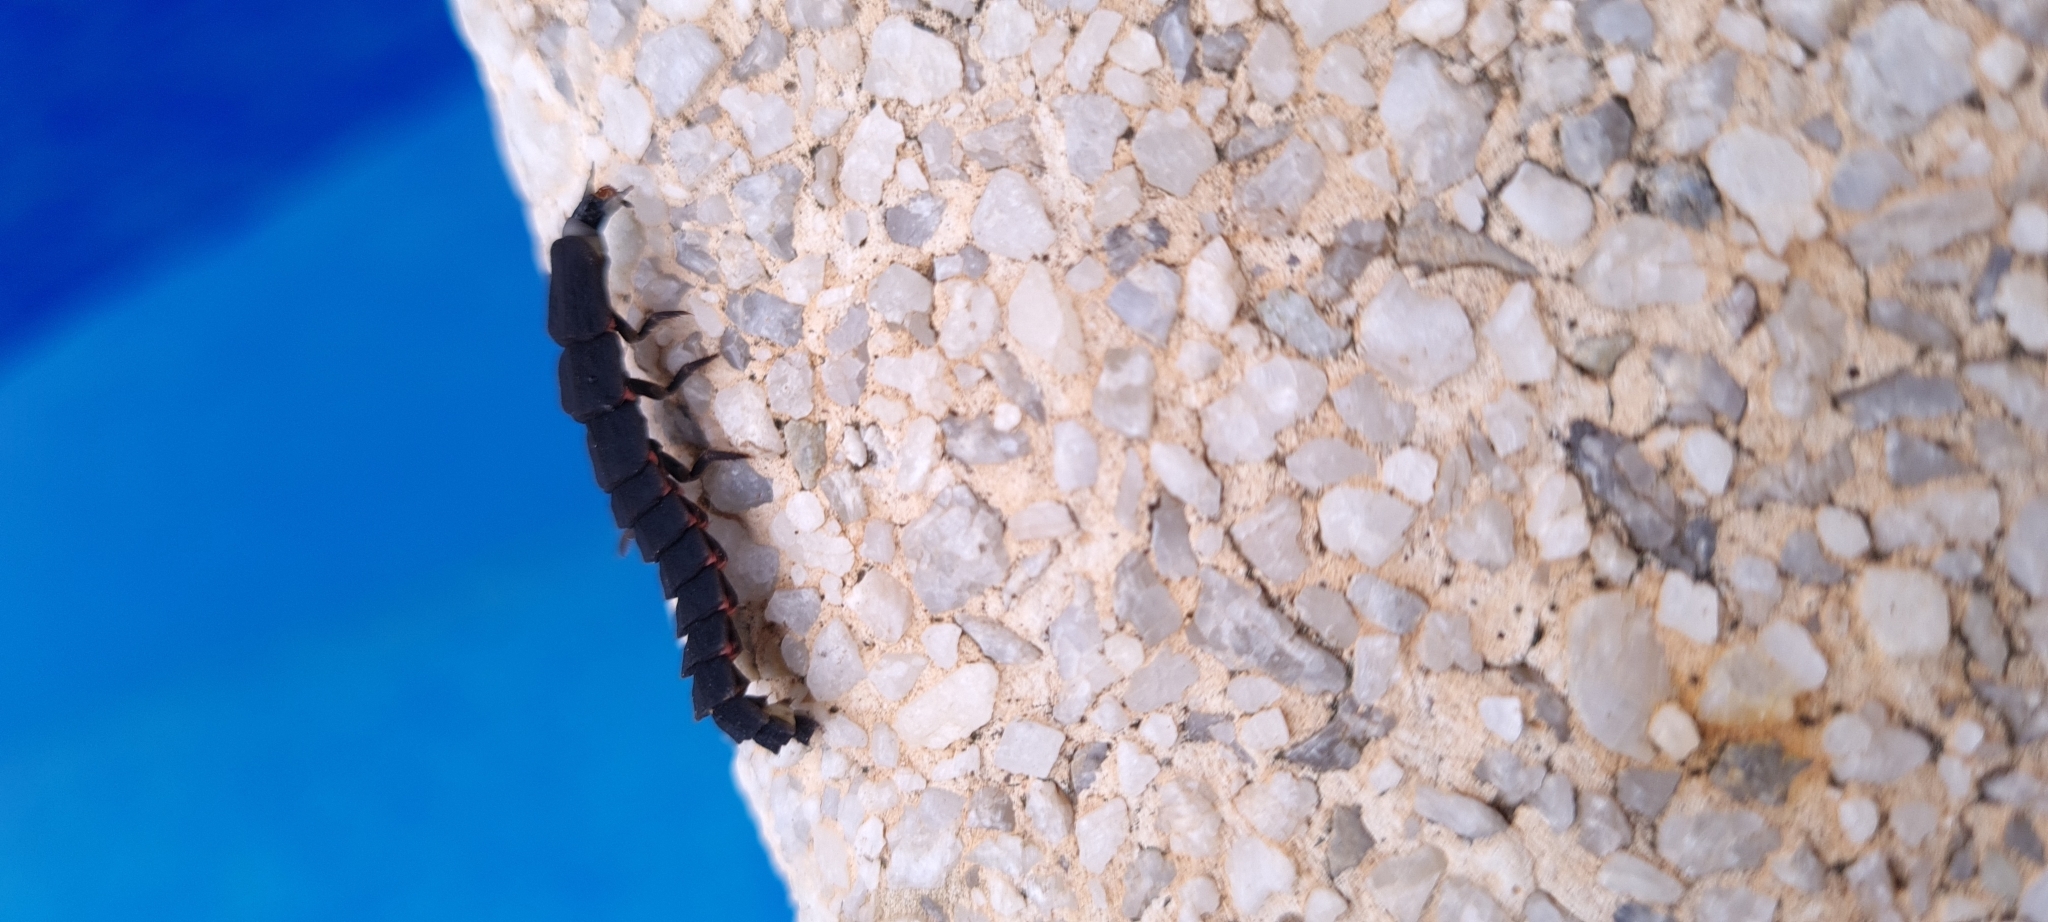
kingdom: Animalia
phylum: Arthropoda
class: Insecta
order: Coleoptera
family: Lampyridae
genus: Nyctophila
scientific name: Nyctophila reichii
